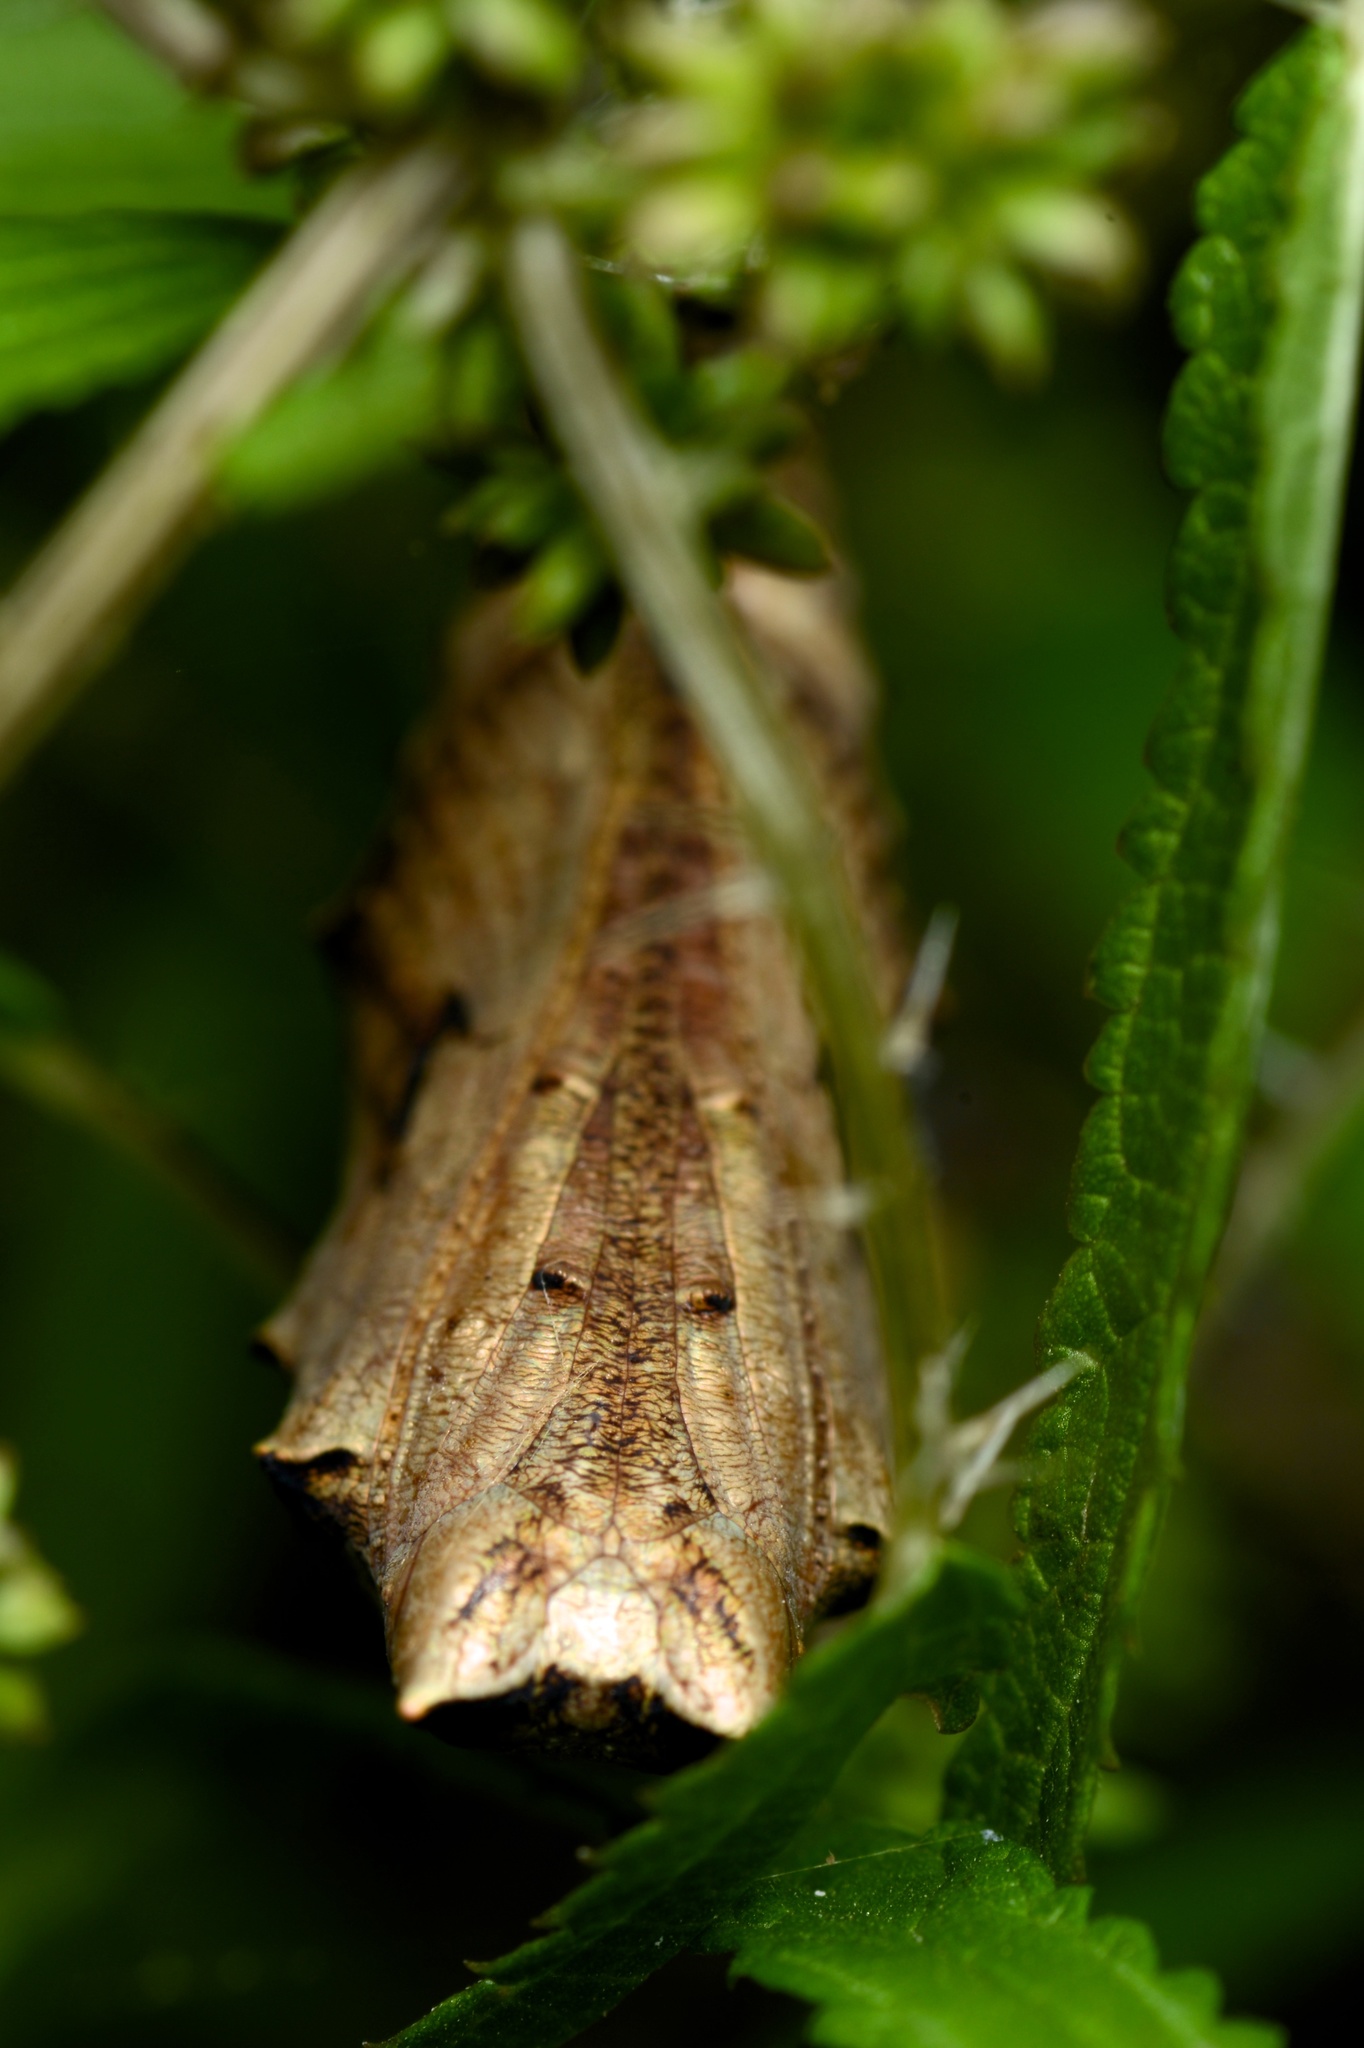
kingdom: Animalia
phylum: Arthropoda
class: Insecta
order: Lepidoptera
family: Nymphalidae
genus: Vanessa
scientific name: Vanessa itea
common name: Yellow admiral
